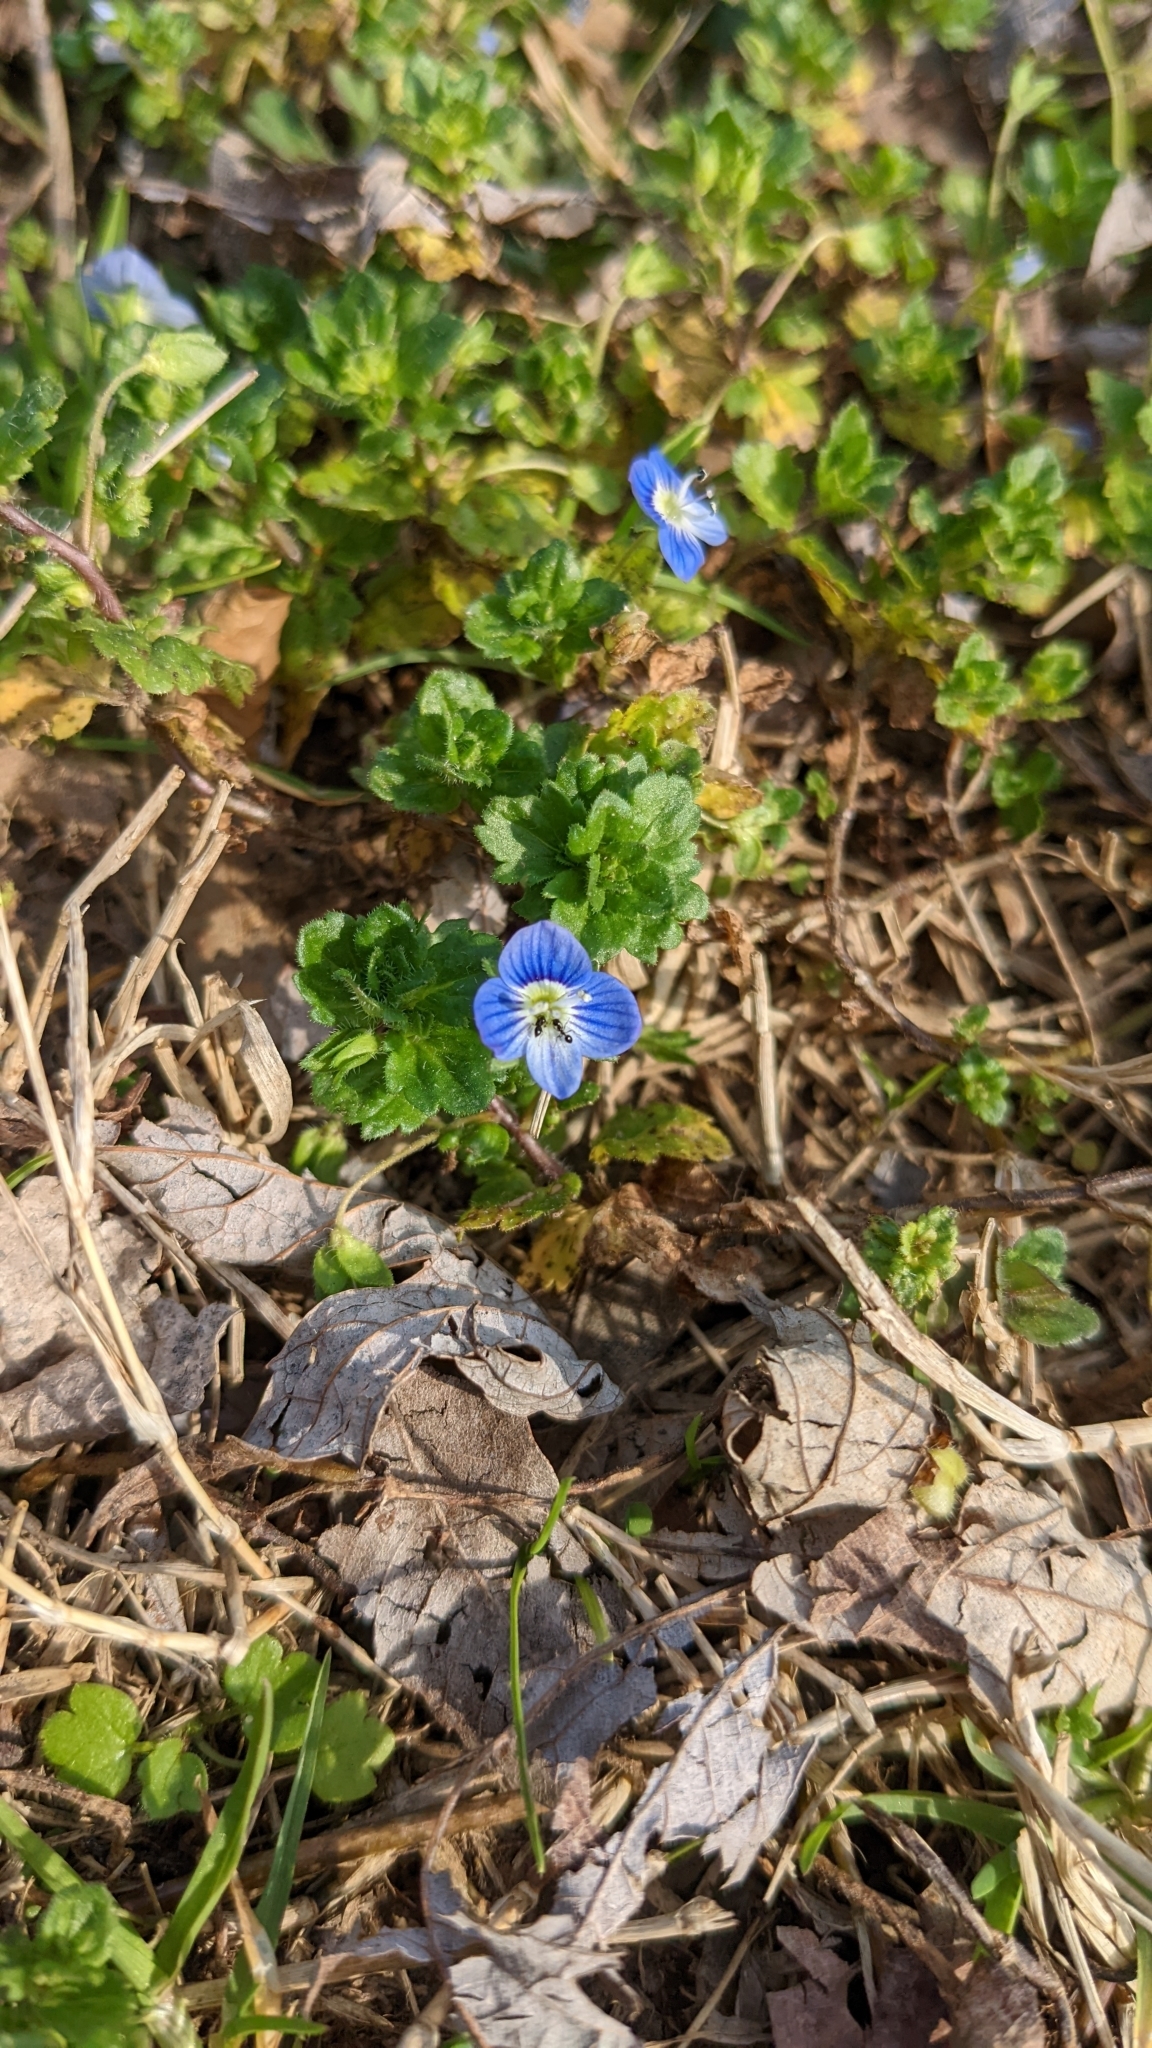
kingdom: Plantae
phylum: Tracheophyta
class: Magnoliopsida
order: Lamiales
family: Plantaginaceae
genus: Veronica
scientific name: Veronica persica
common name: Common field-speedwell
